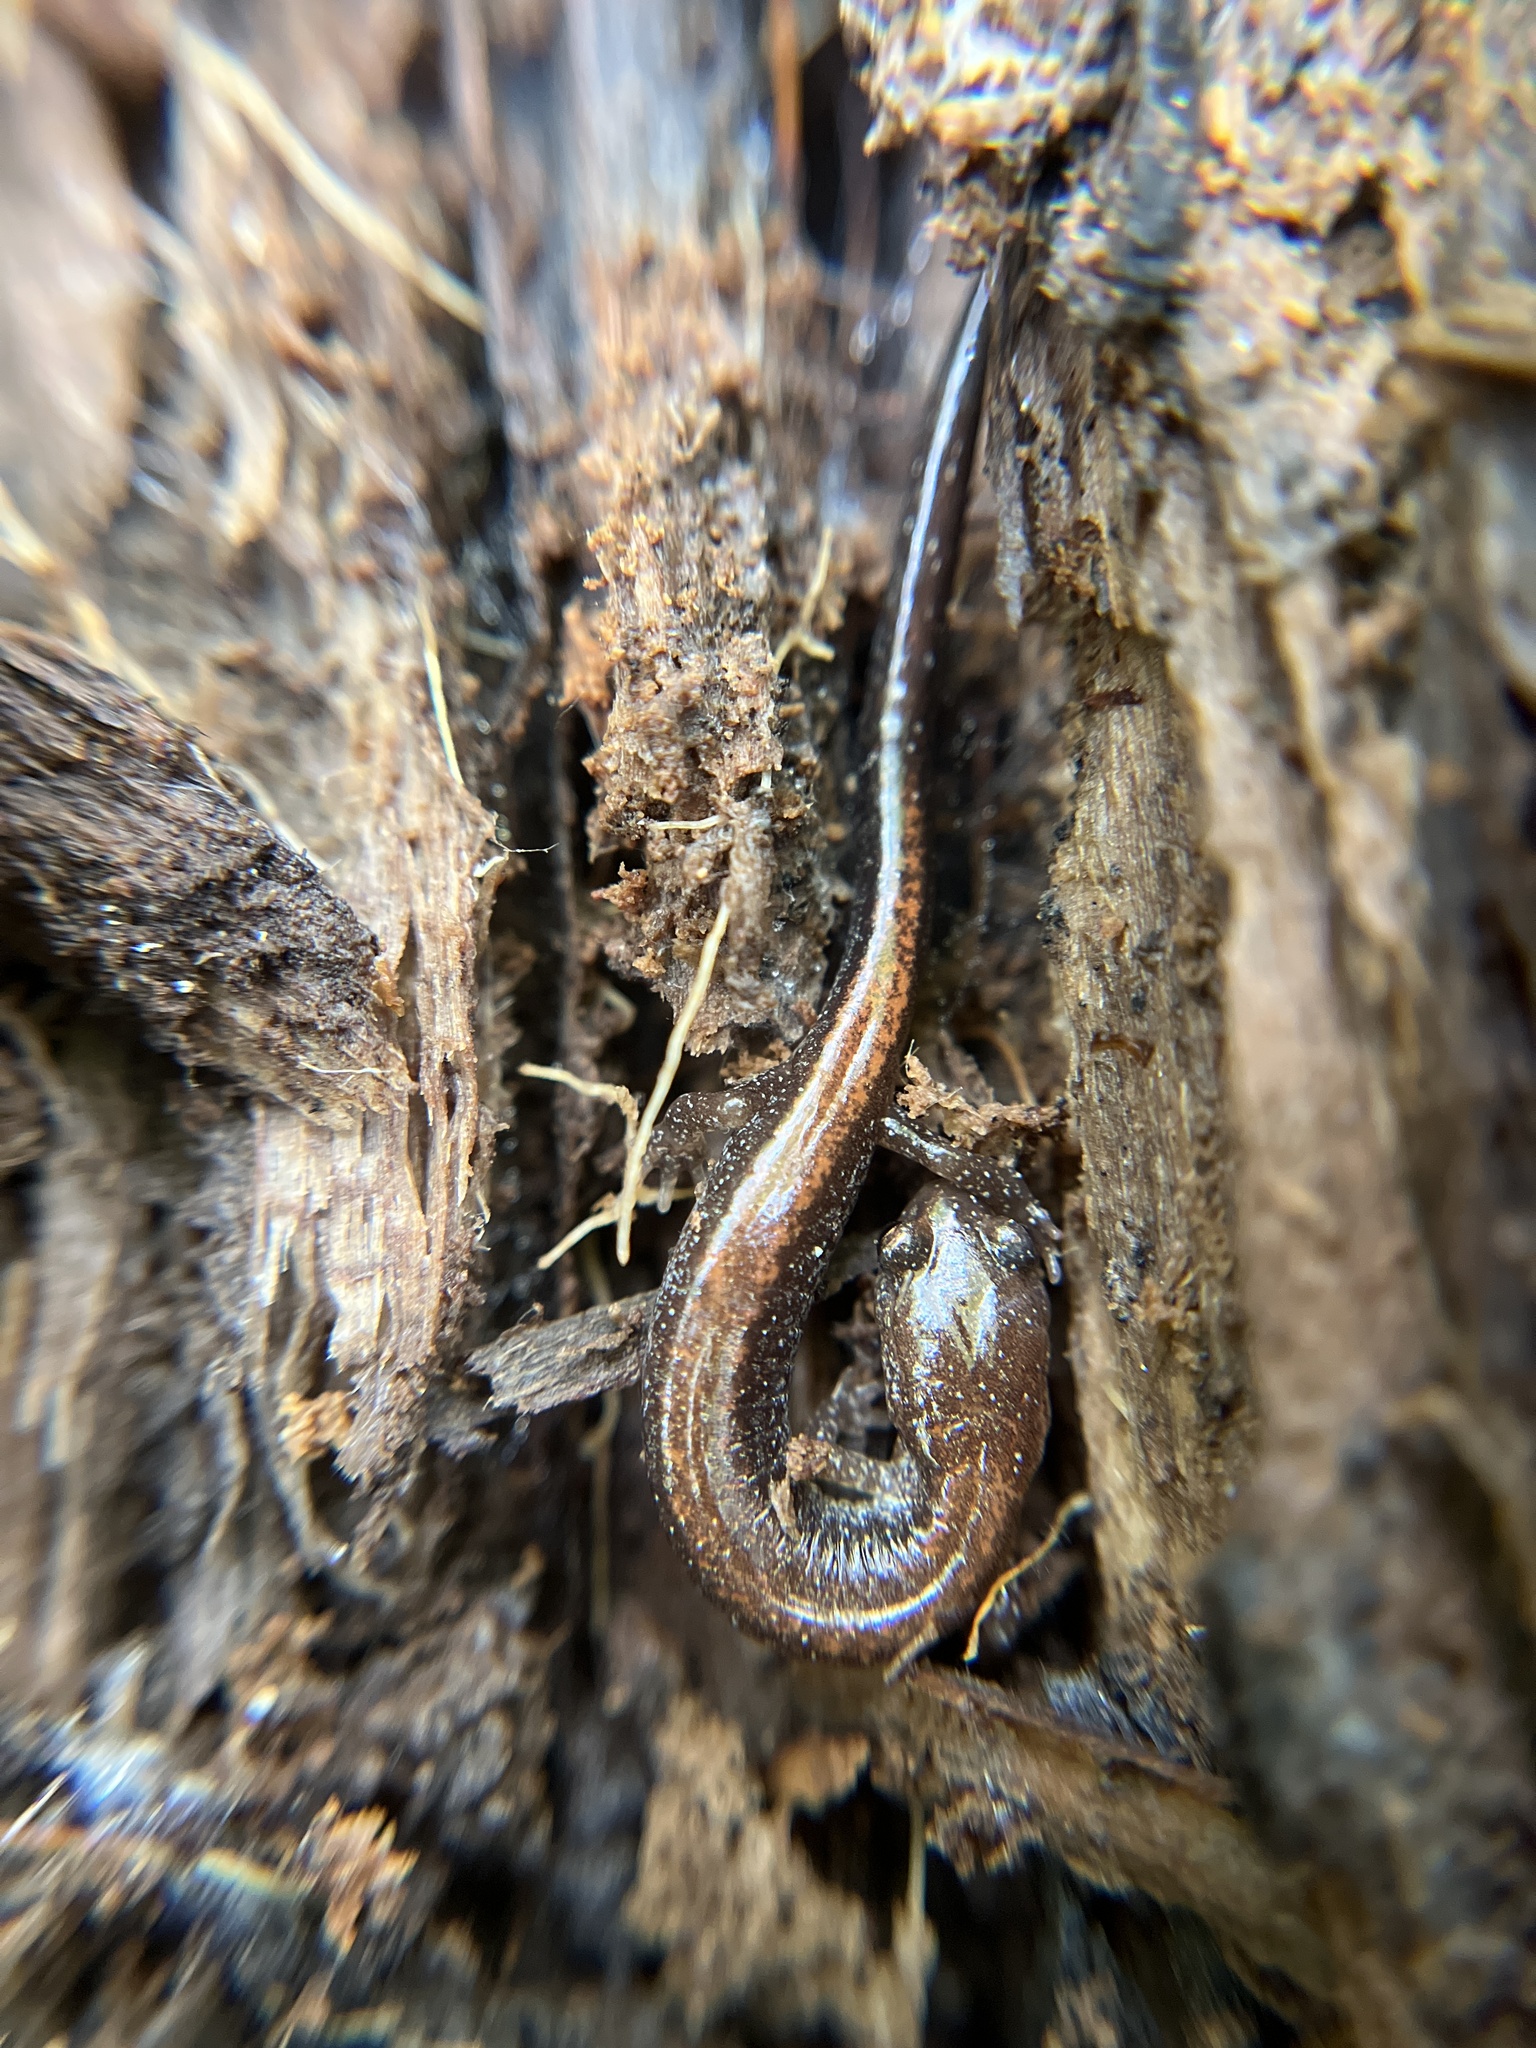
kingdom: Animalia
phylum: Chordata
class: Amphibia
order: Caudata
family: Plethodontidae
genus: Plethodon
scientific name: Plethodon cinereus
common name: Redback salamander
